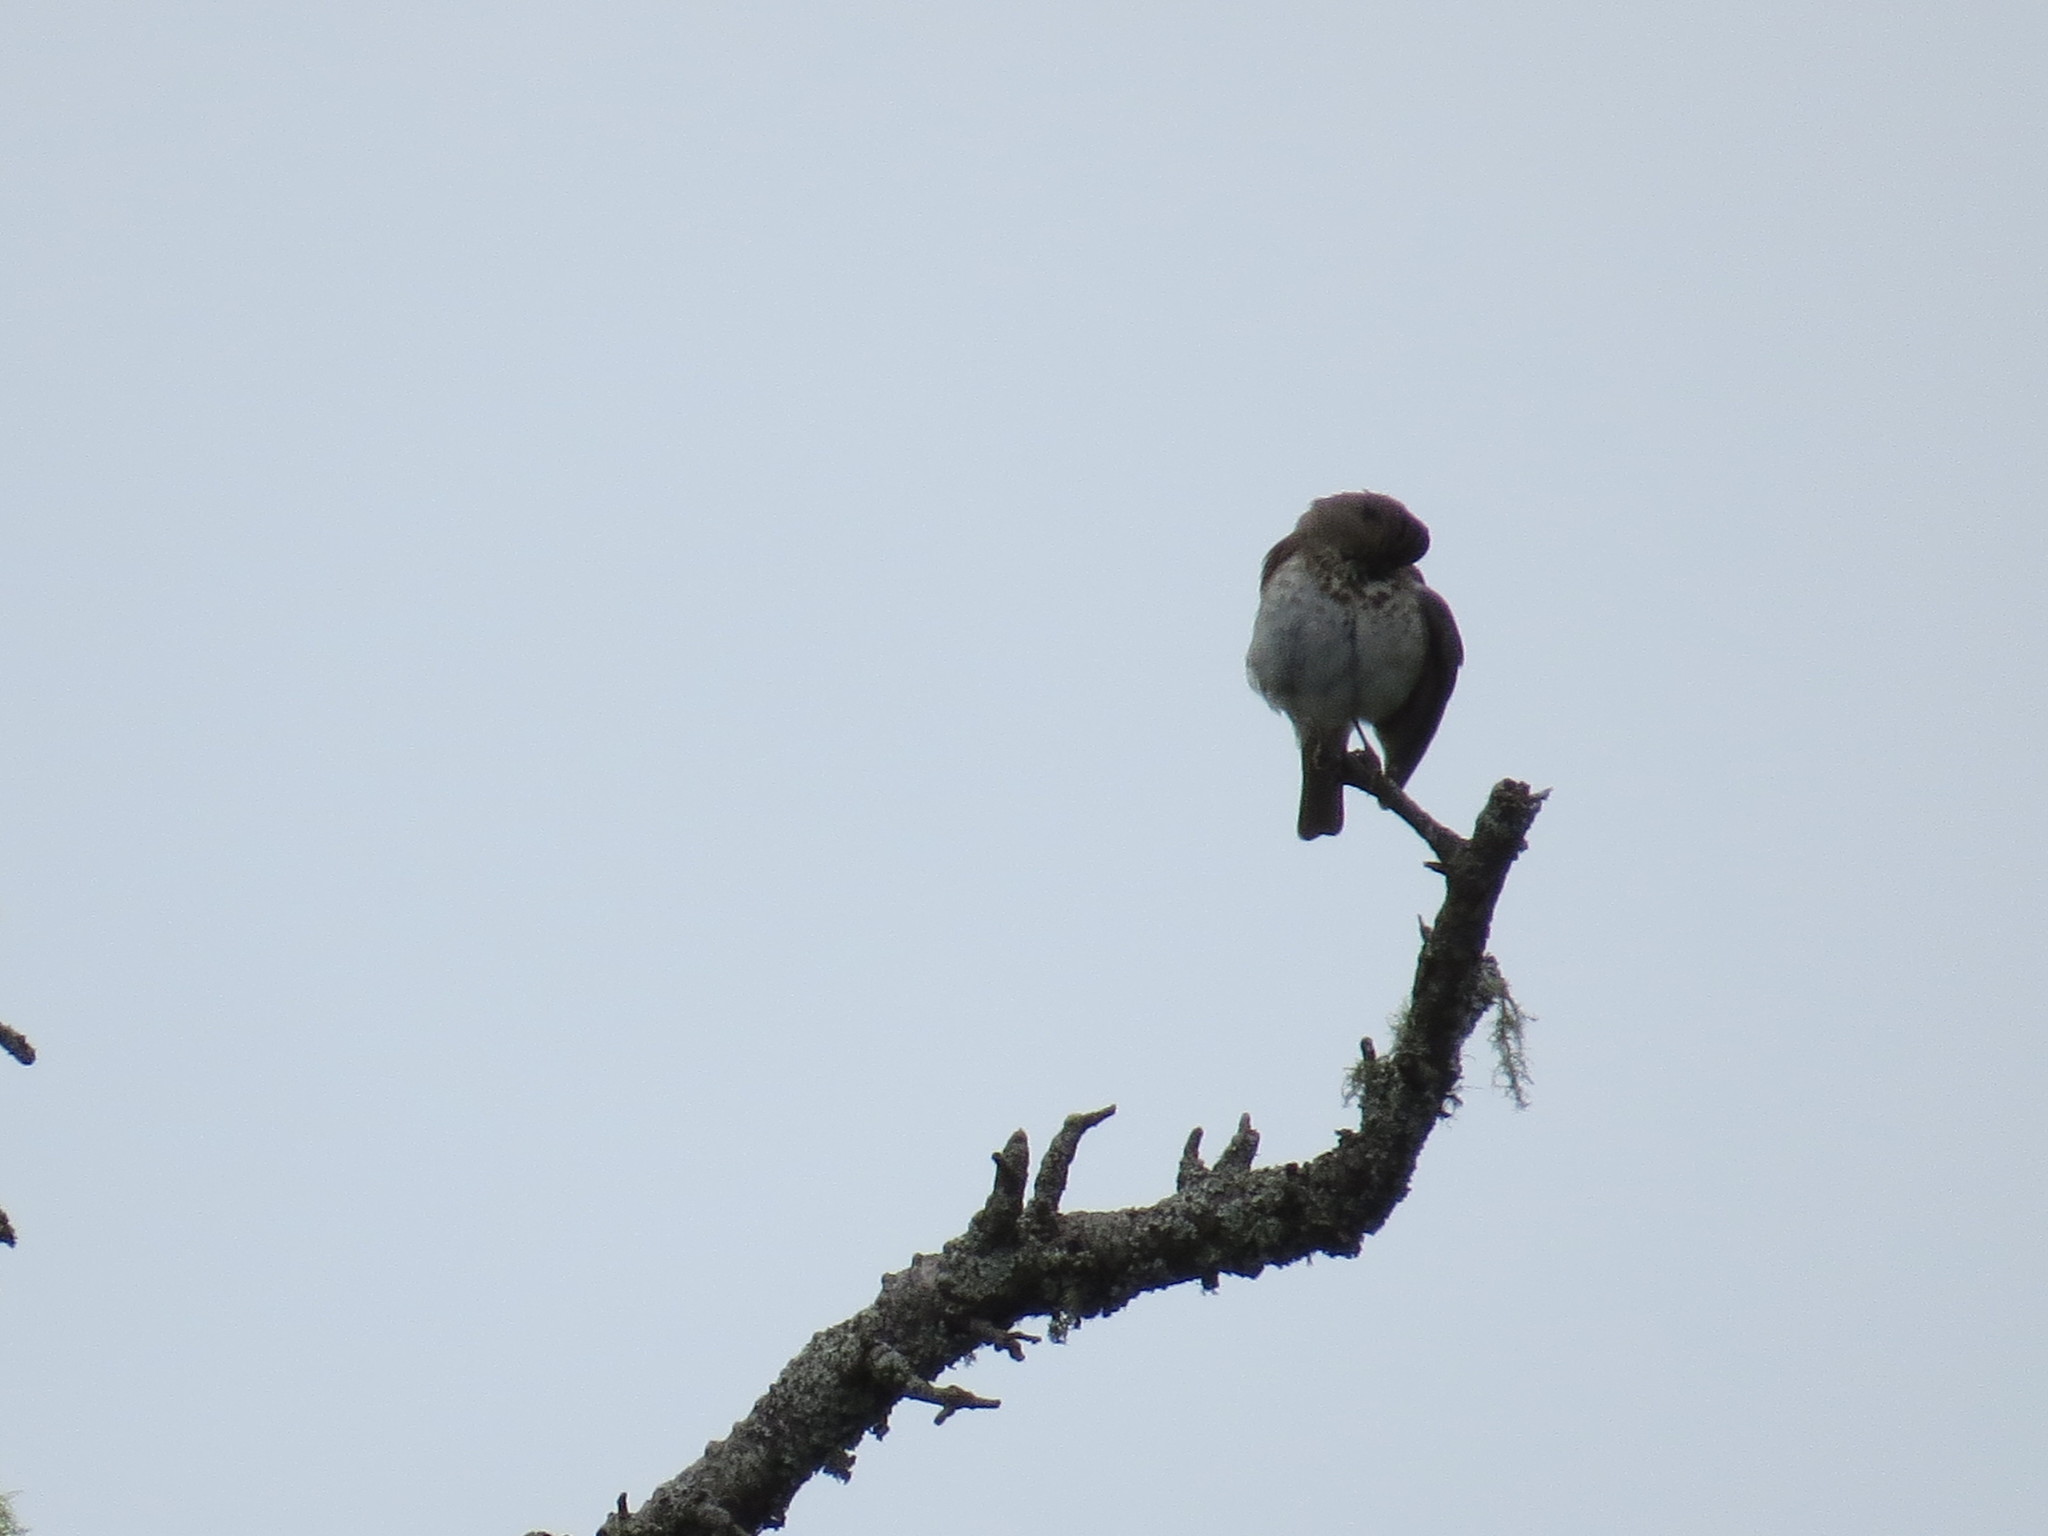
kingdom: Animalia
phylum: Chordata
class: Aves
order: Passeriformes
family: Turdidae
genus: Catharus
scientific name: Catharus guttatus
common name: Hermit thrush
